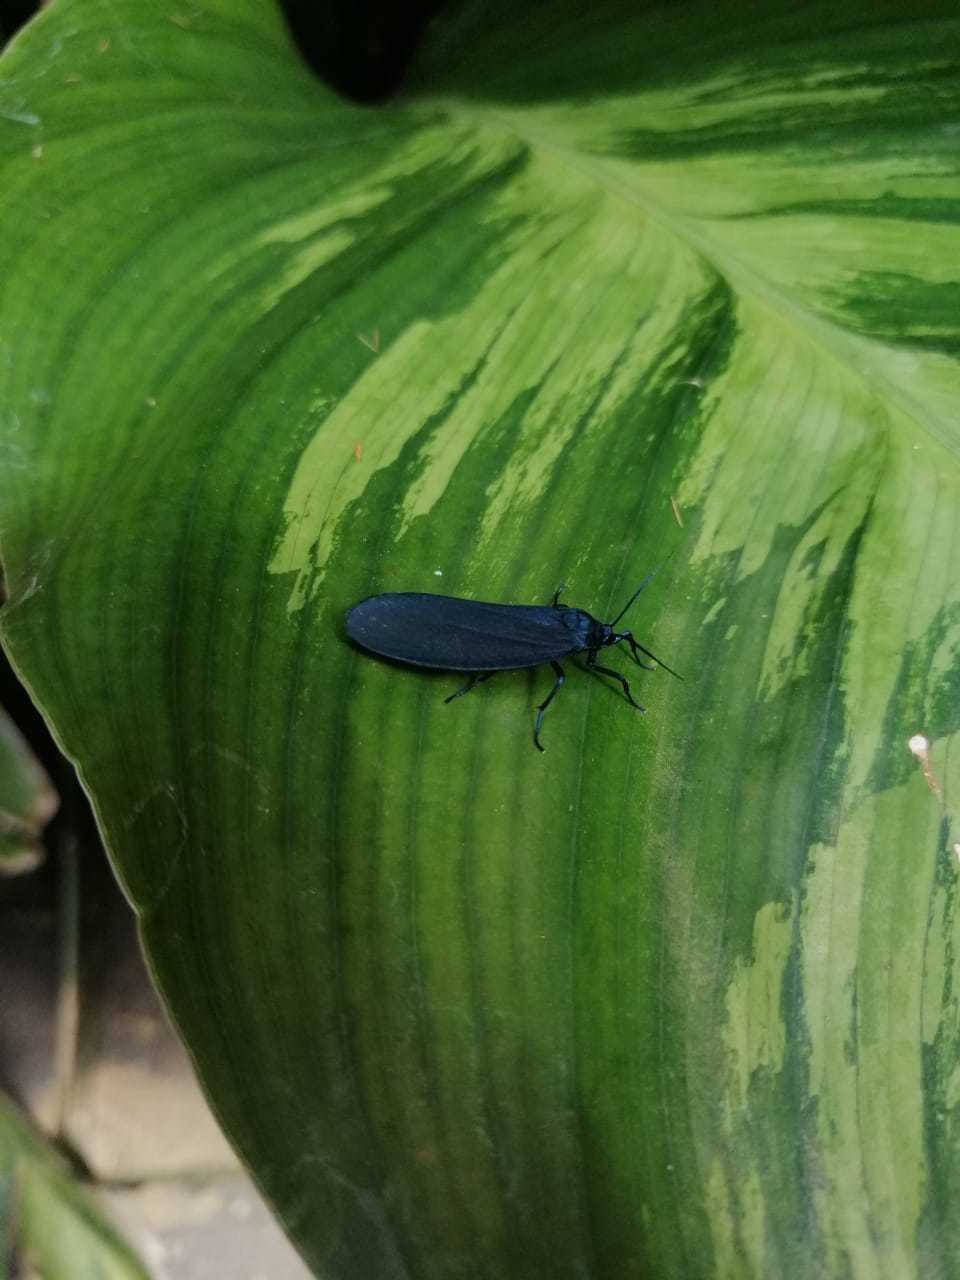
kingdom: Animalia
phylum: Arthropoda
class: Insecta
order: Lepidoptera
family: Erebidae
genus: Gardinia
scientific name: Gardinia anopla
